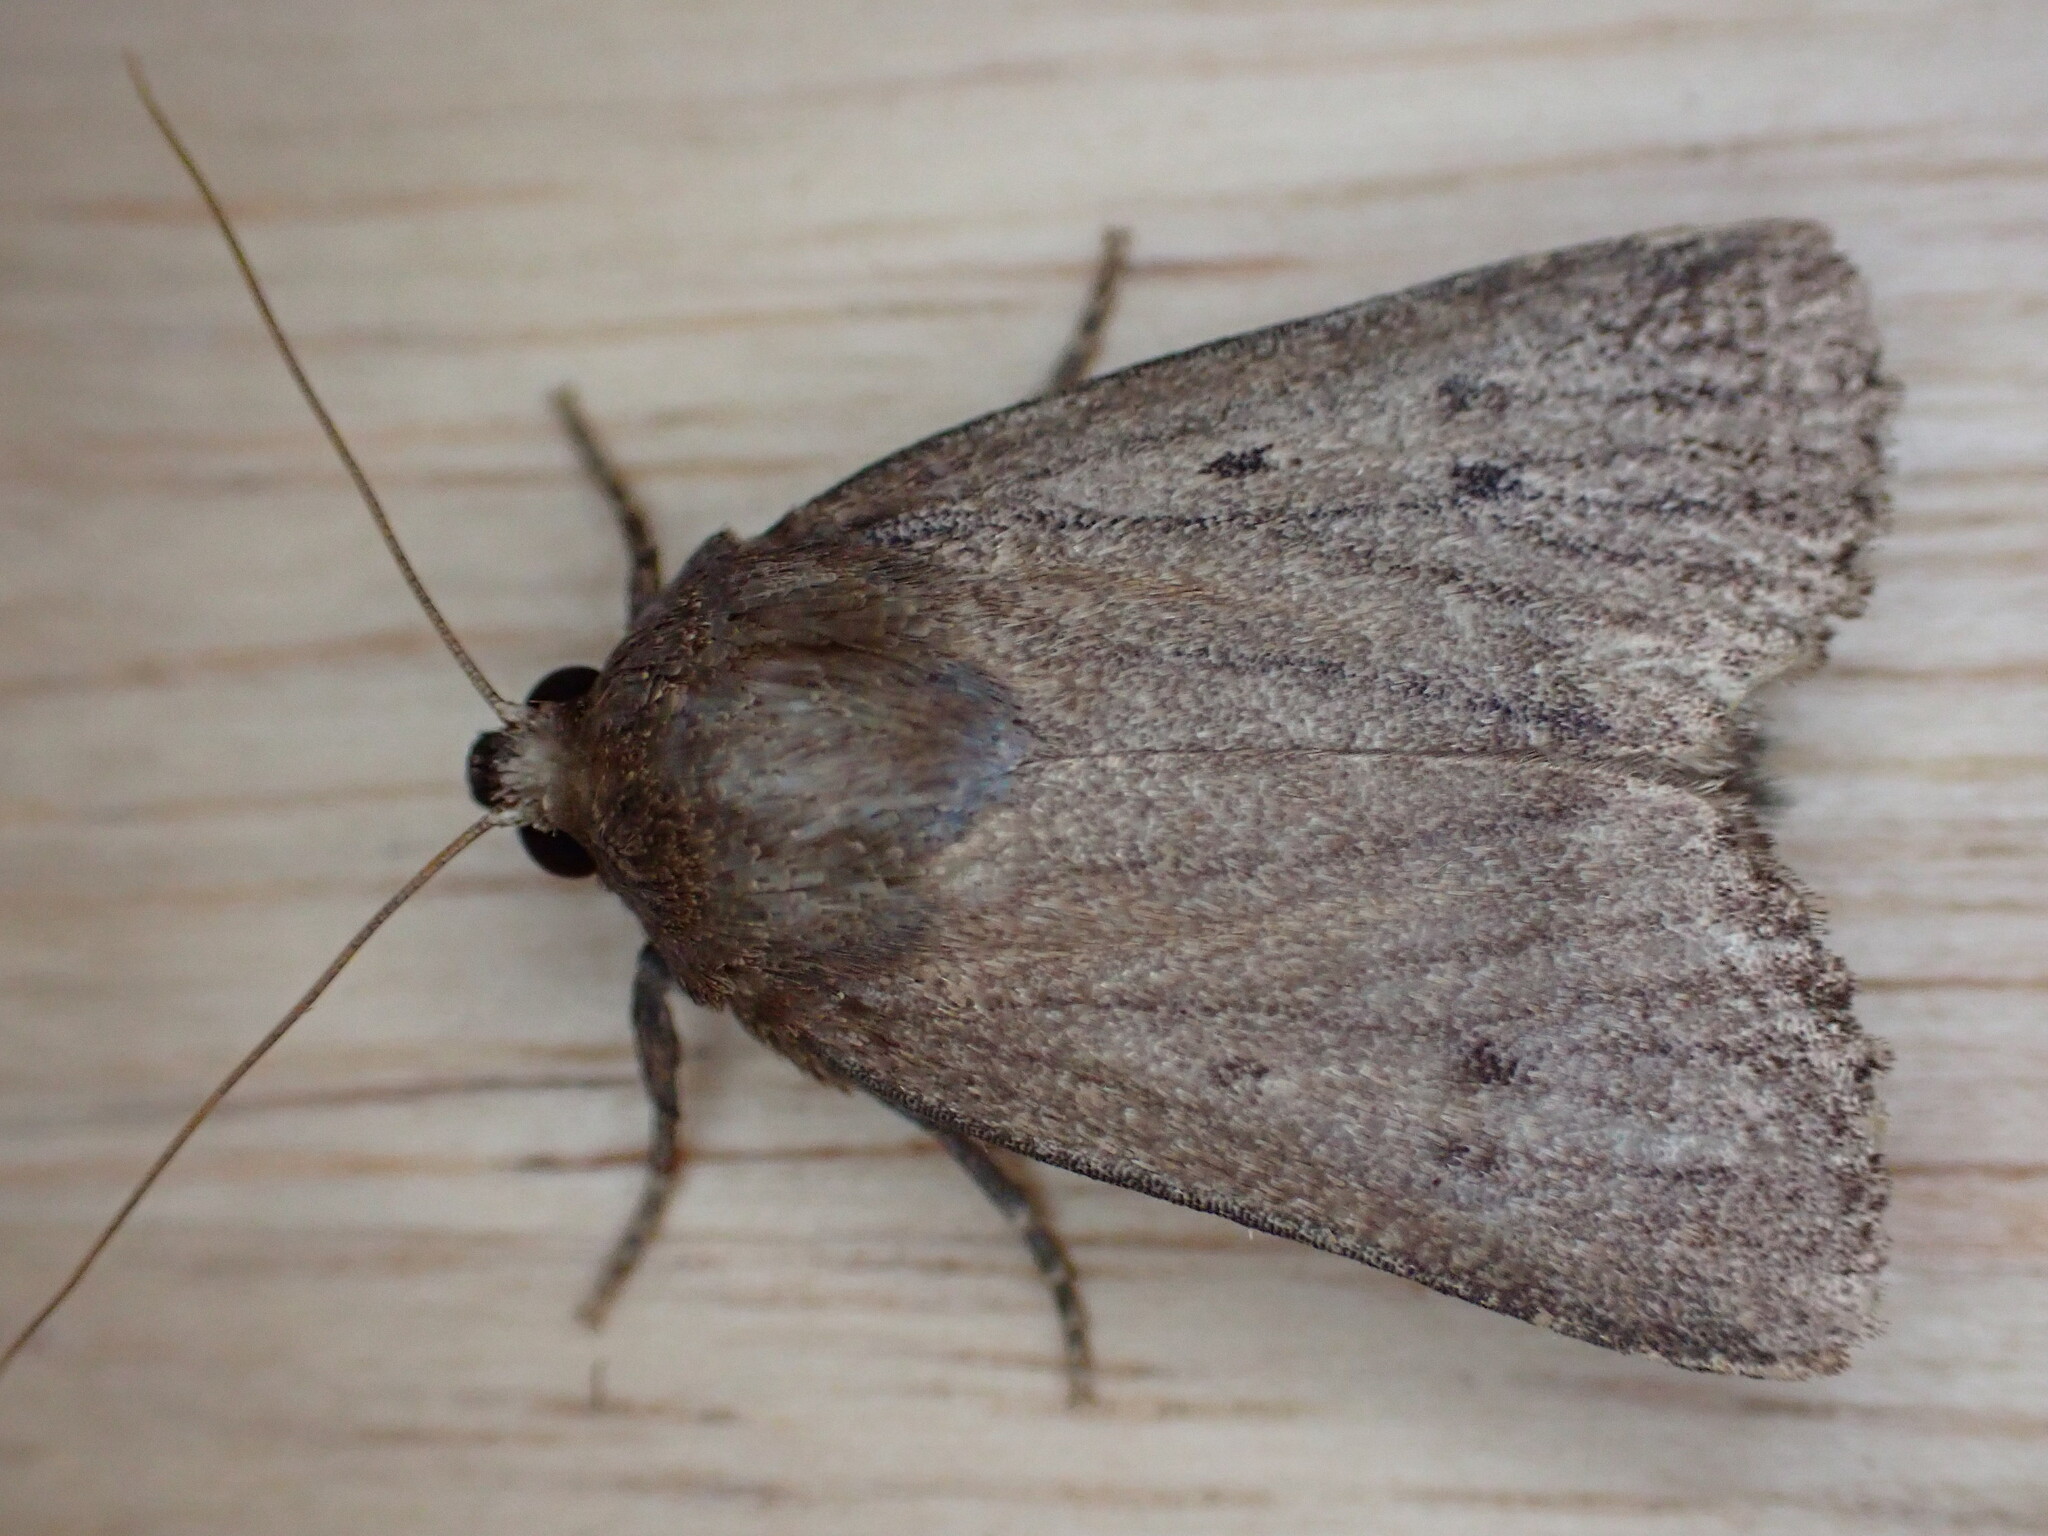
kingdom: Animalia
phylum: Arthropoda
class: Insecta
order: Lepidoptera
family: Noctuidae
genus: Amphipyra
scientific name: Amphipyra tragopoginis
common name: Mouse moth
